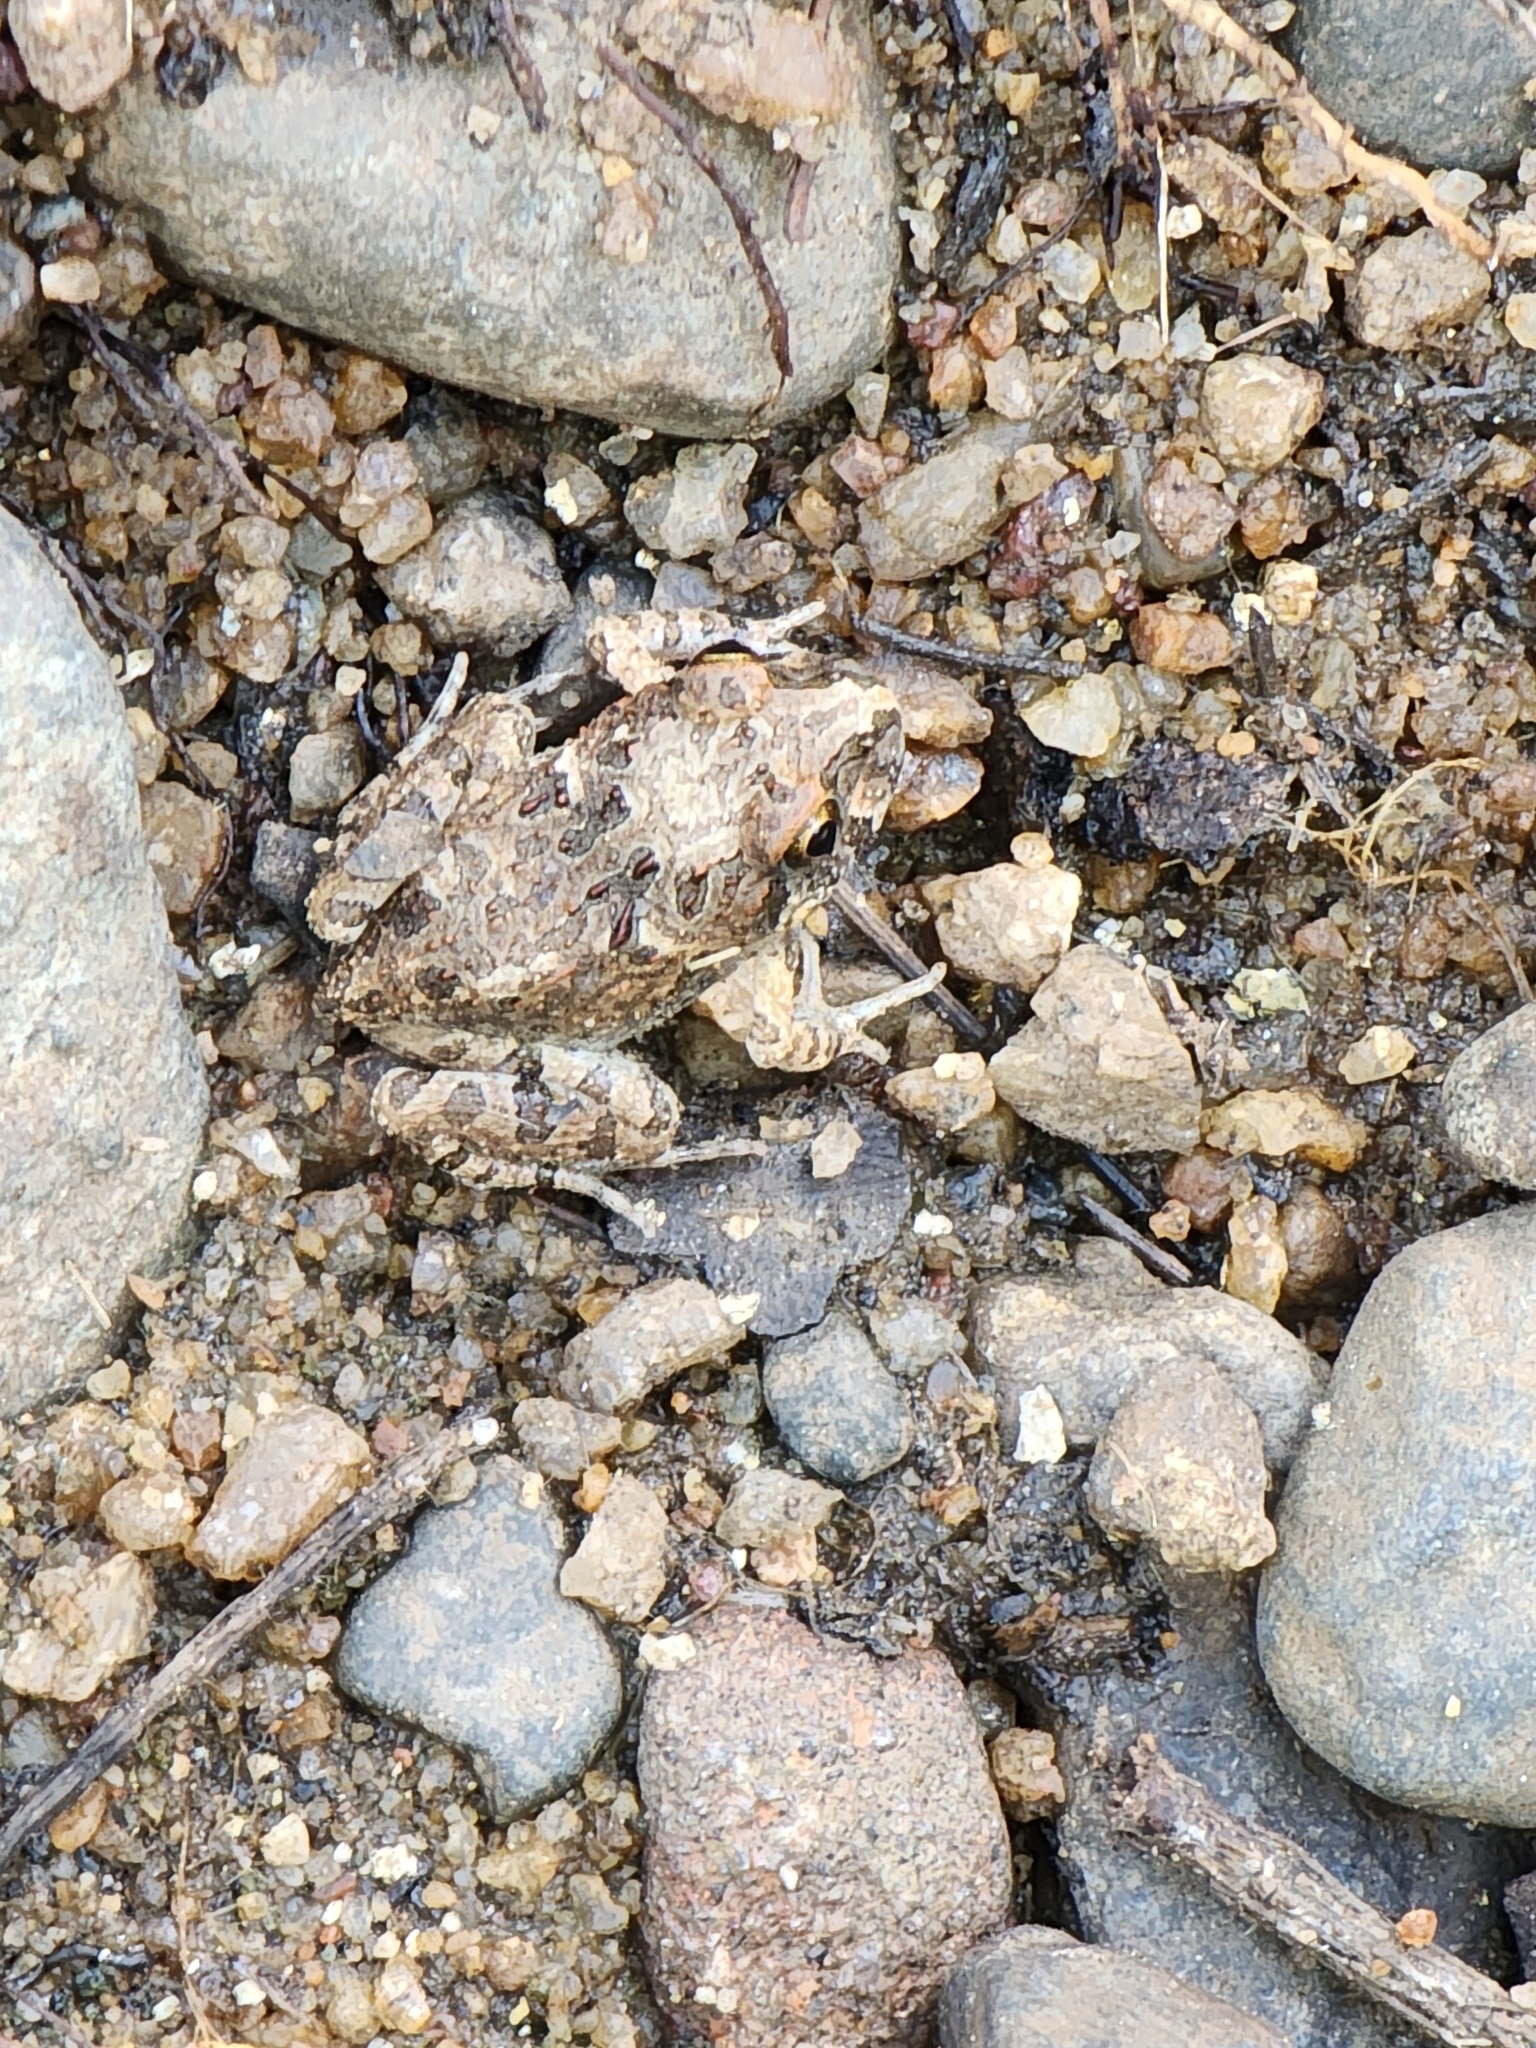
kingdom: Animalia
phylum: Chordata
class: Amphibia
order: Anura
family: Limnodynastidae
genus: Platyplectrum
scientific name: Platyplectrum ornatum
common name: Ornate burrowing frog
